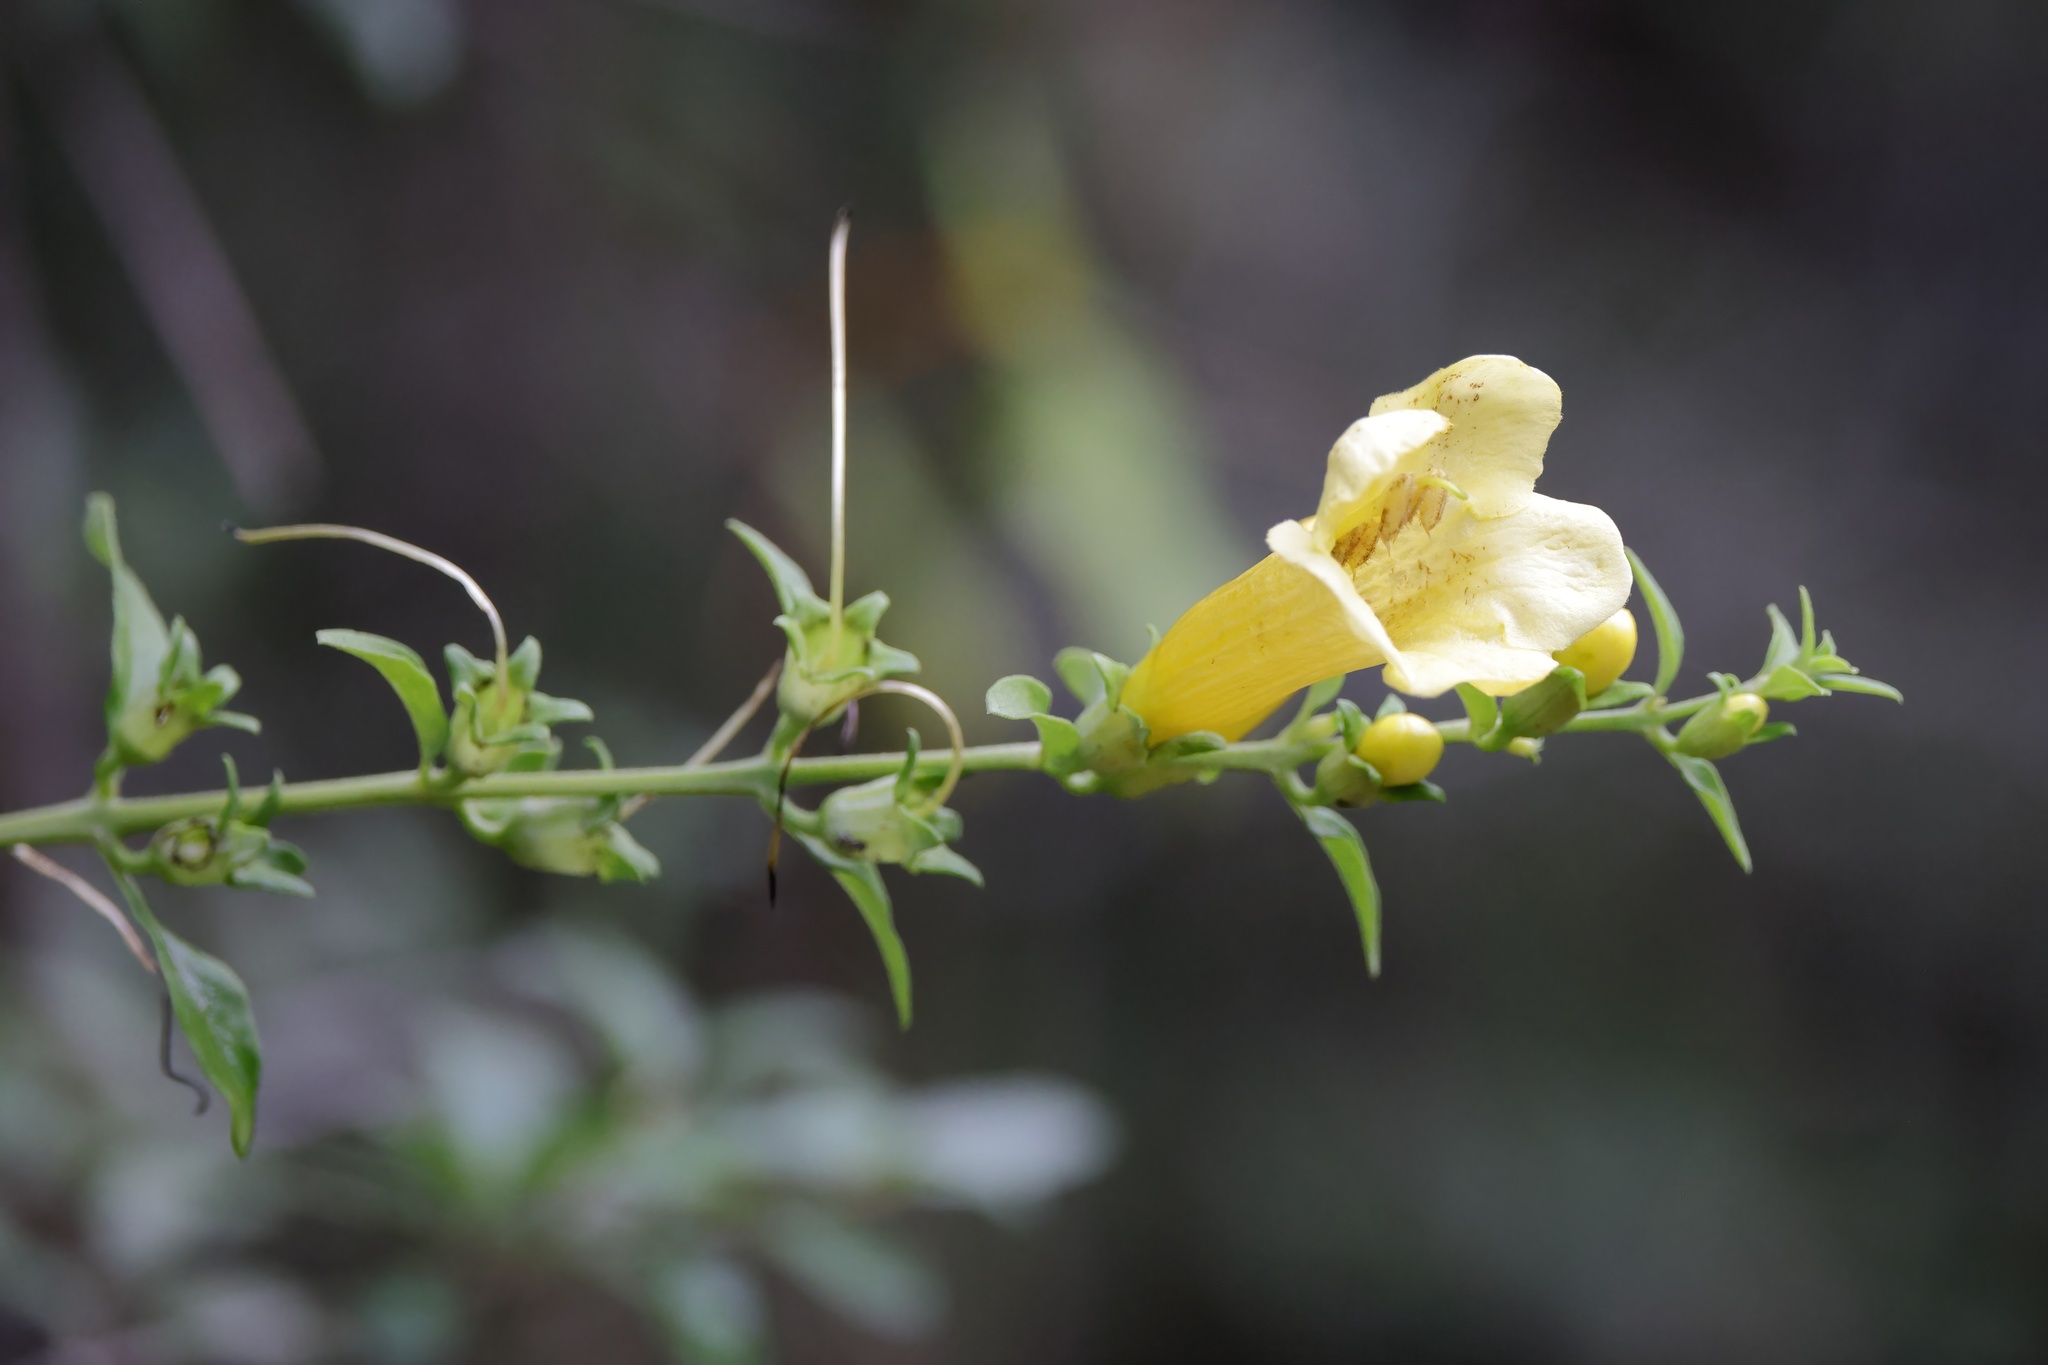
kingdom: Plantae
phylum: Tracheophyta
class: Magnoliopsida
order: Lamiales
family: Orobanchaceae
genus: Aureolaria
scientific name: Aureolaria flava
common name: Smooth false foxglove
